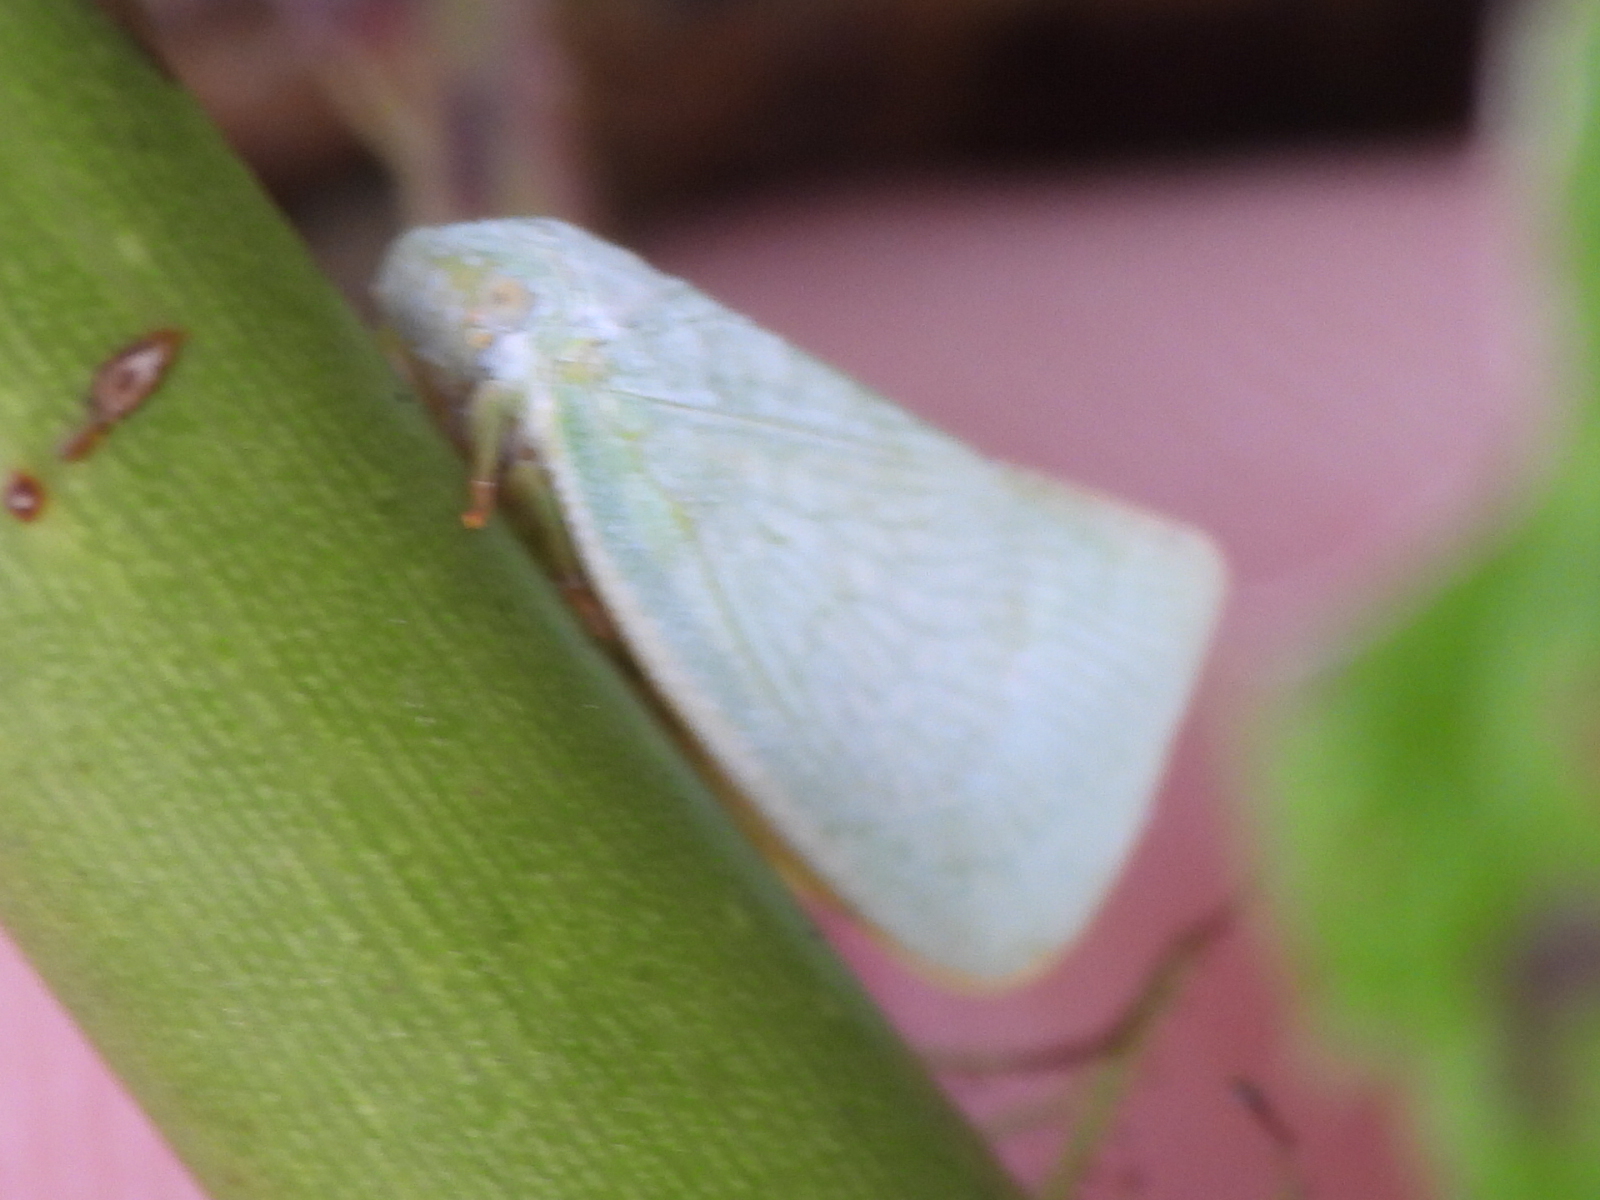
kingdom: Animalia
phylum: Arthropoda
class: Insecta
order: Hemiptera
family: Flatidae
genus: Flatormenis
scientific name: Flatormenis proxima
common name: Northern flatid planthopper
